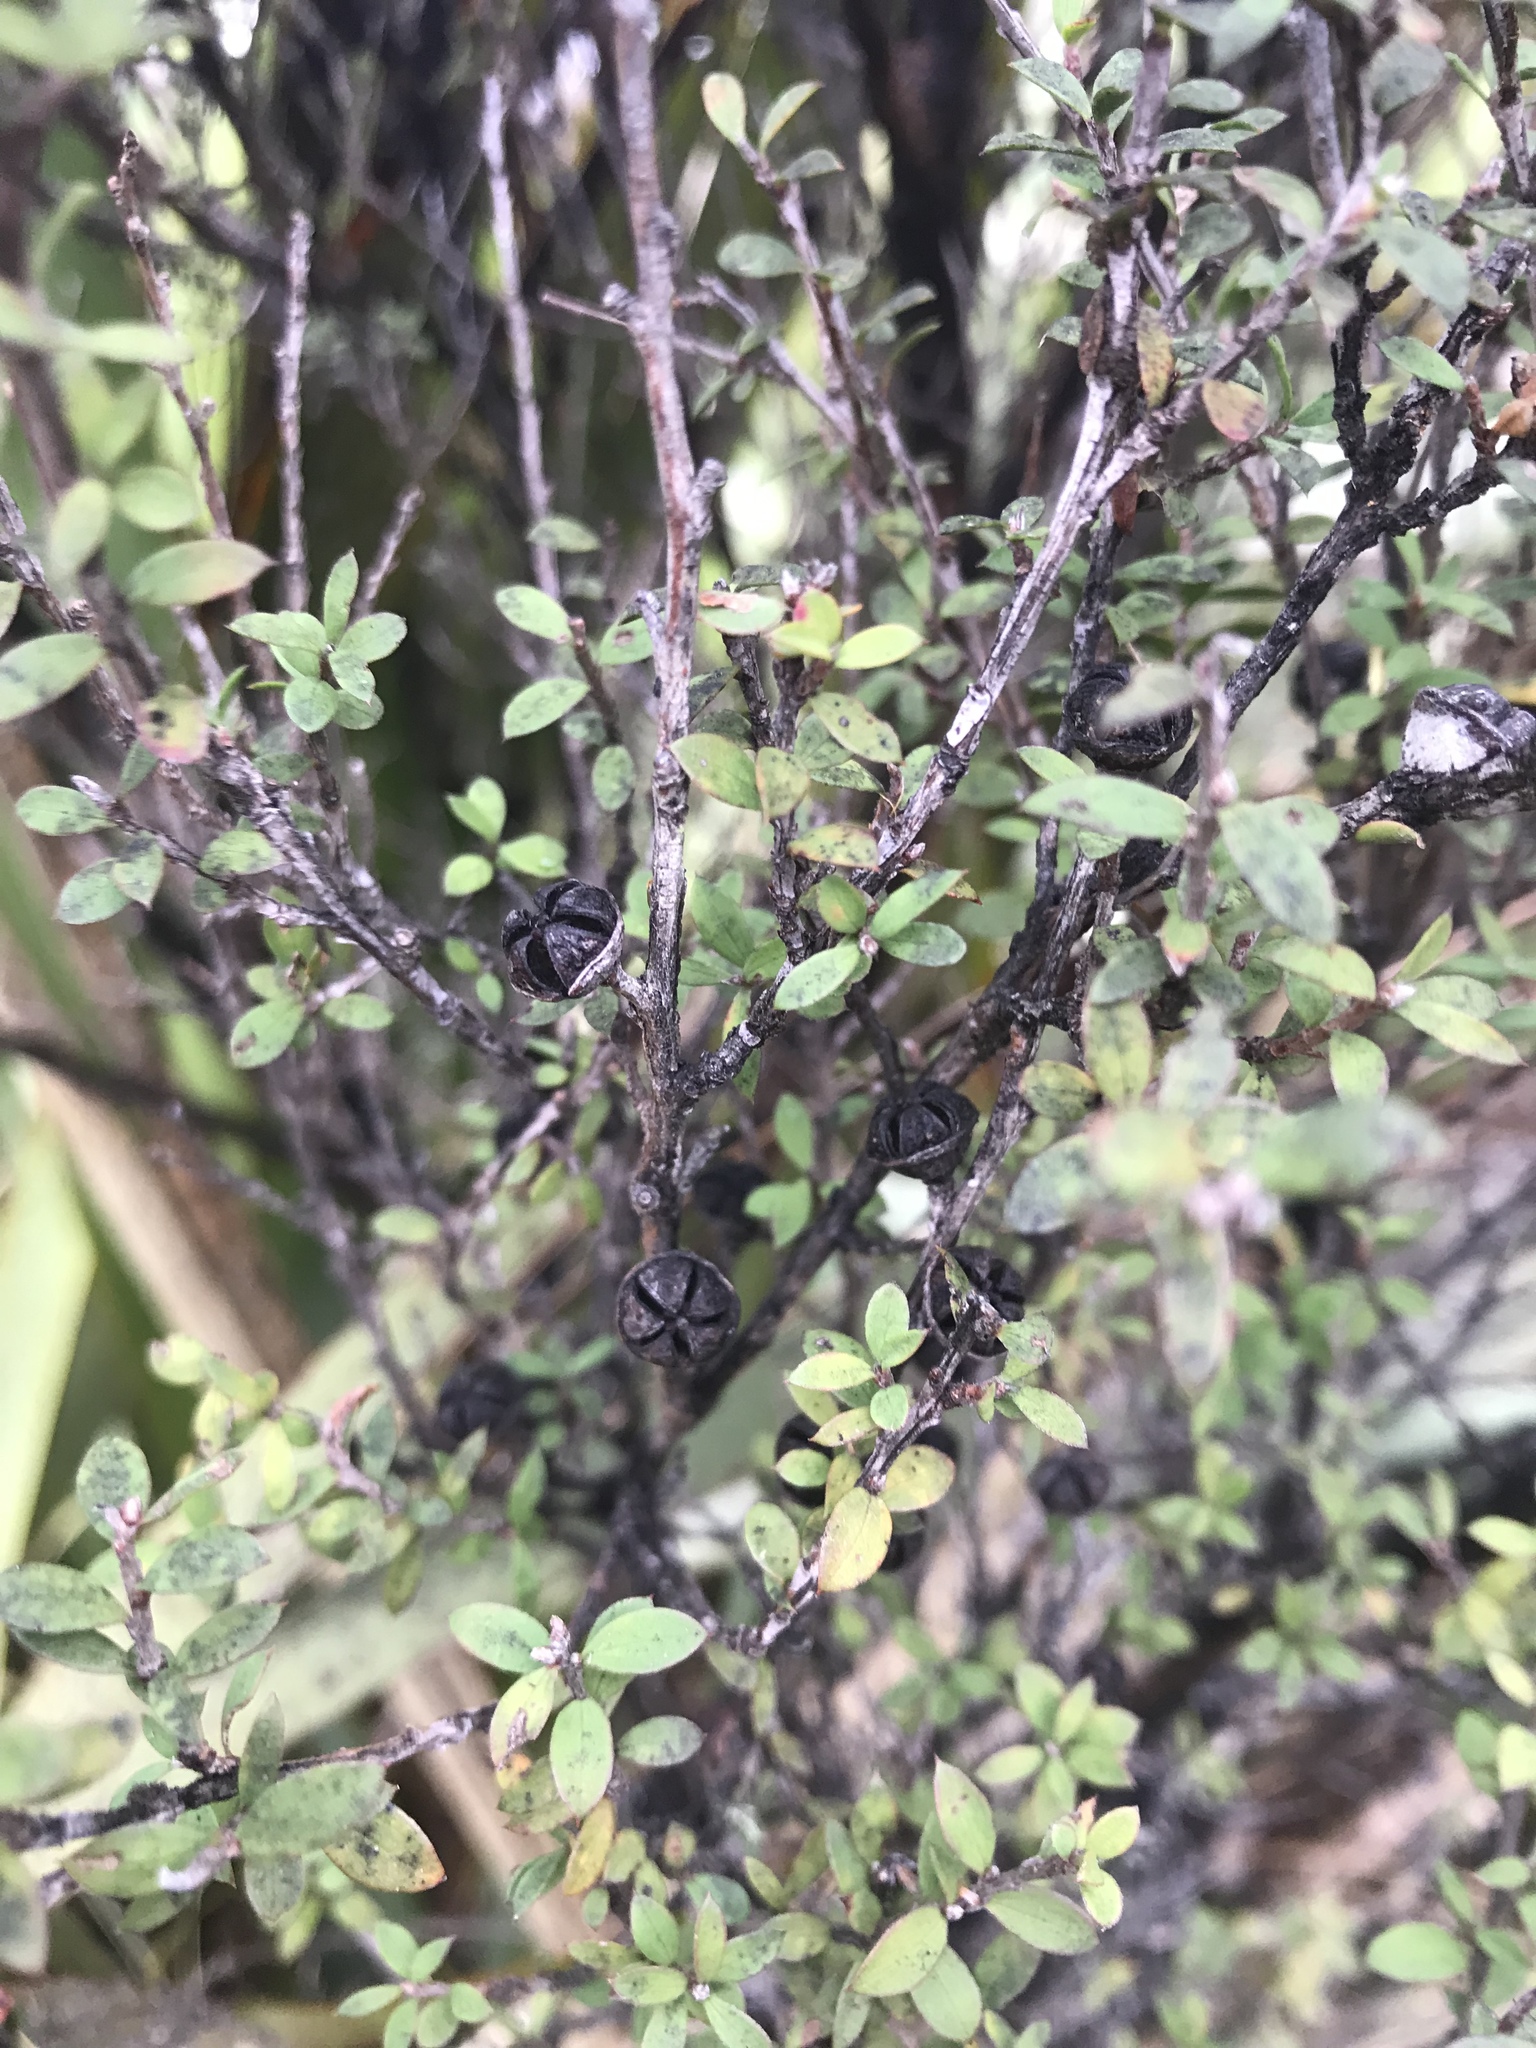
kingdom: Plantae
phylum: Tracheophyta
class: Magnoliopsida
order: Myrtales
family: Myrtaceae
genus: Leptospermum
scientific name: Leptospermum scoparium
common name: Broom tea-tree
